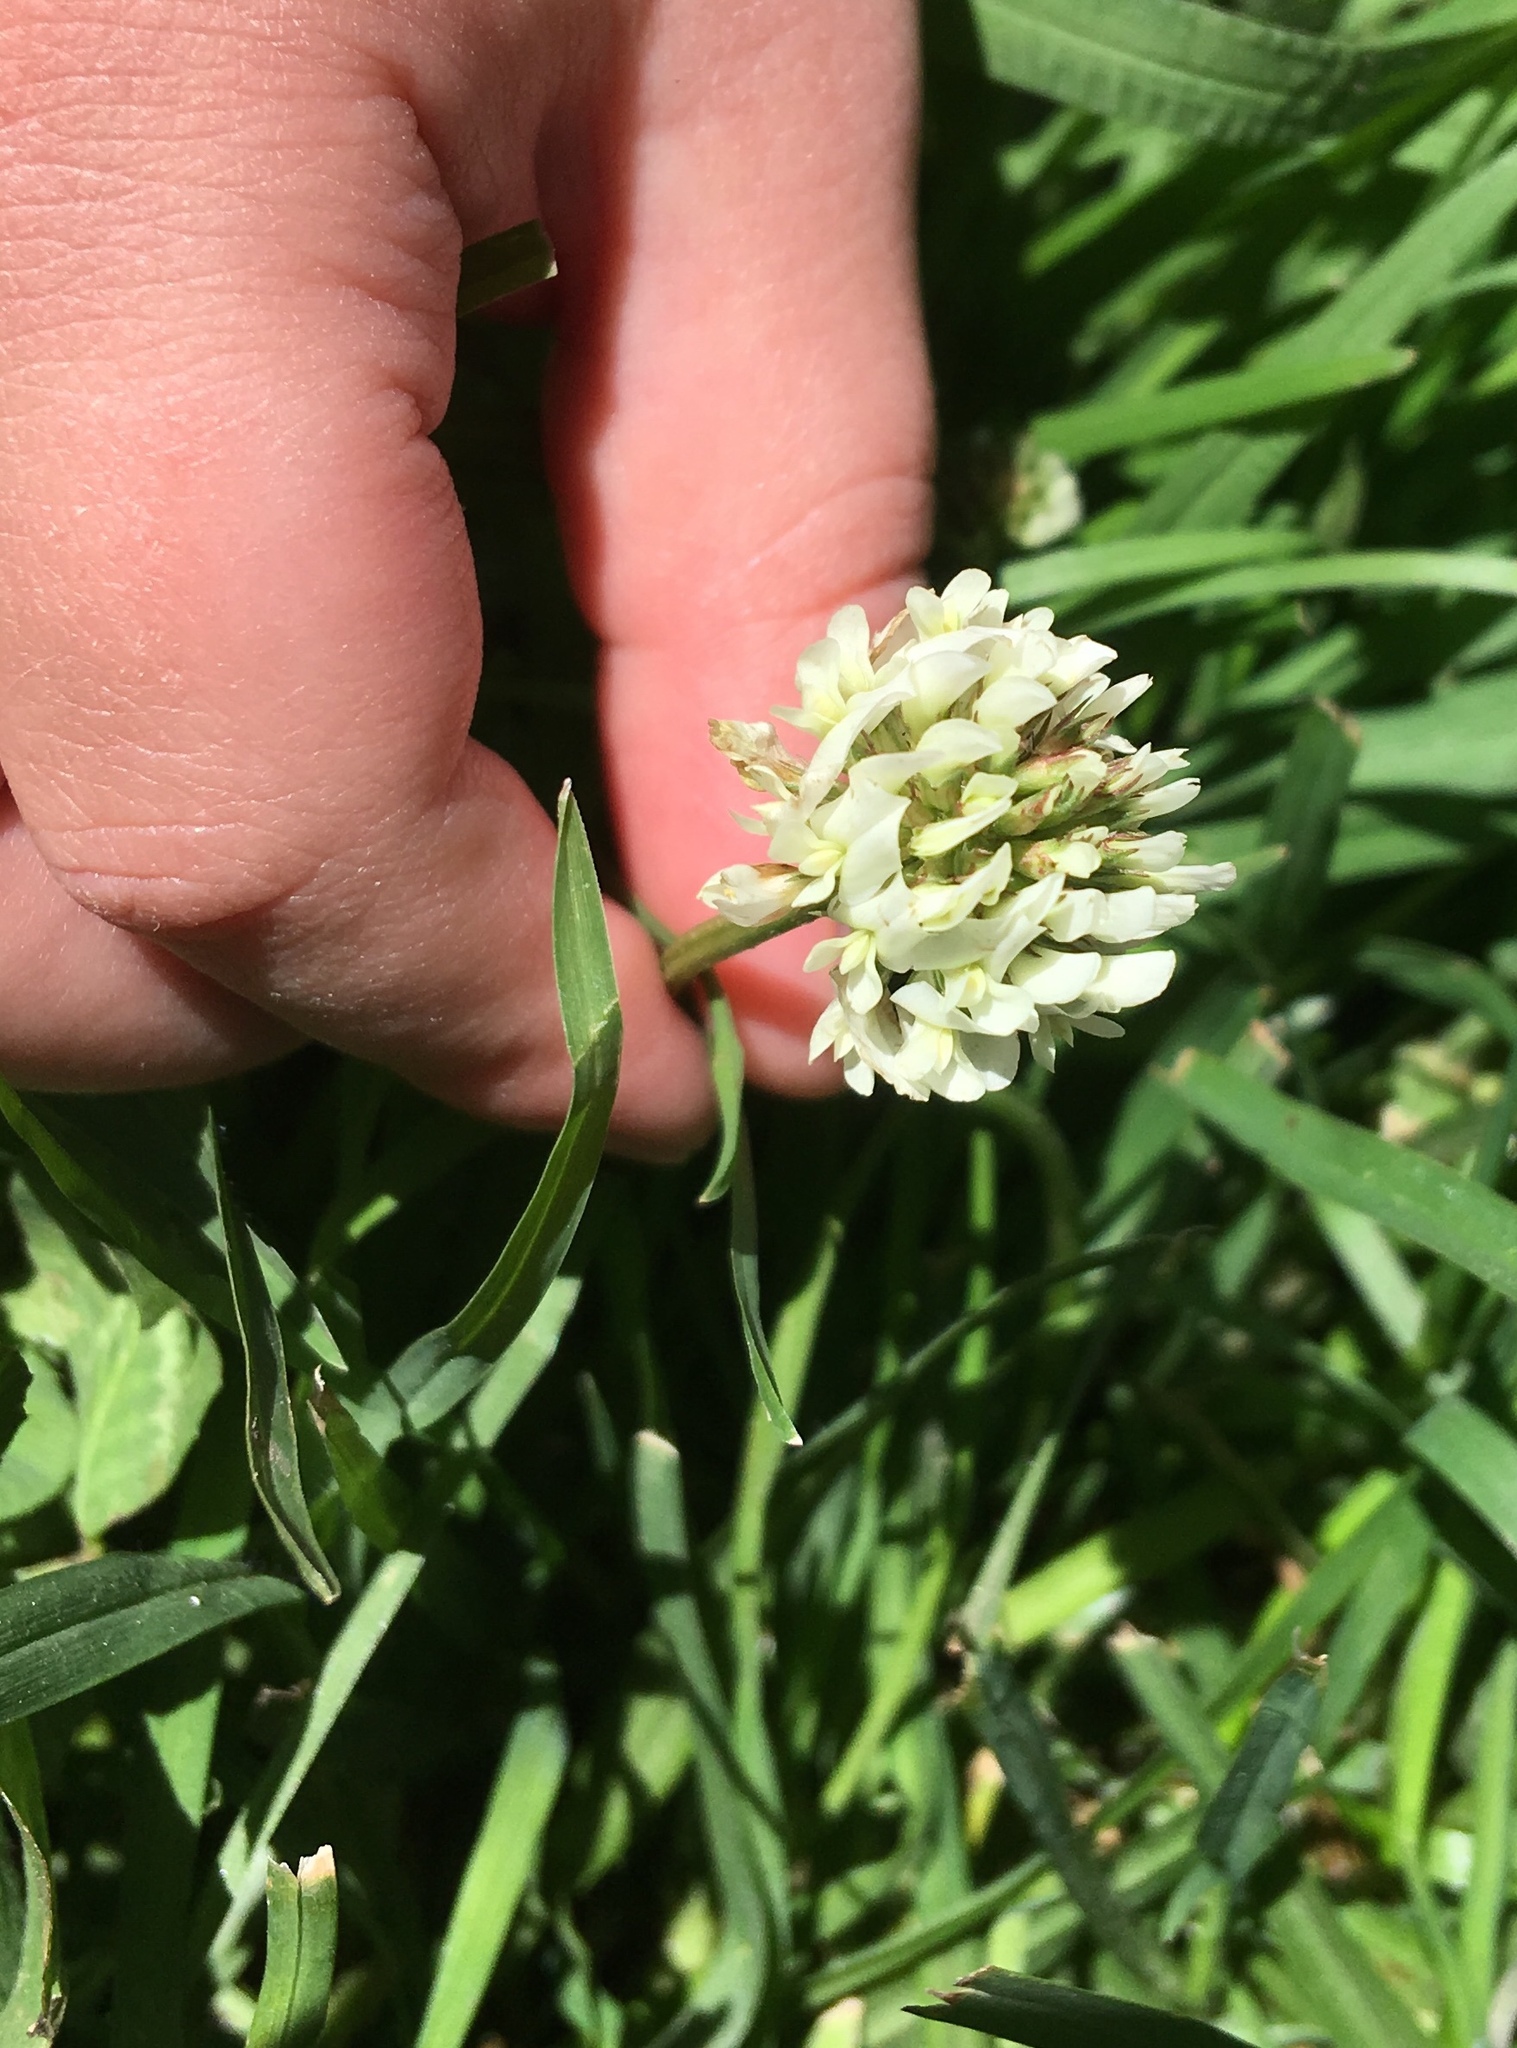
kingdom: Plantae
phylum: Tracheophyta
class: Magnoliopsida
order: Fabales
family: Fabaceae
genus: Trifolium
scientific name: Trifolium repens
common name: White clover
